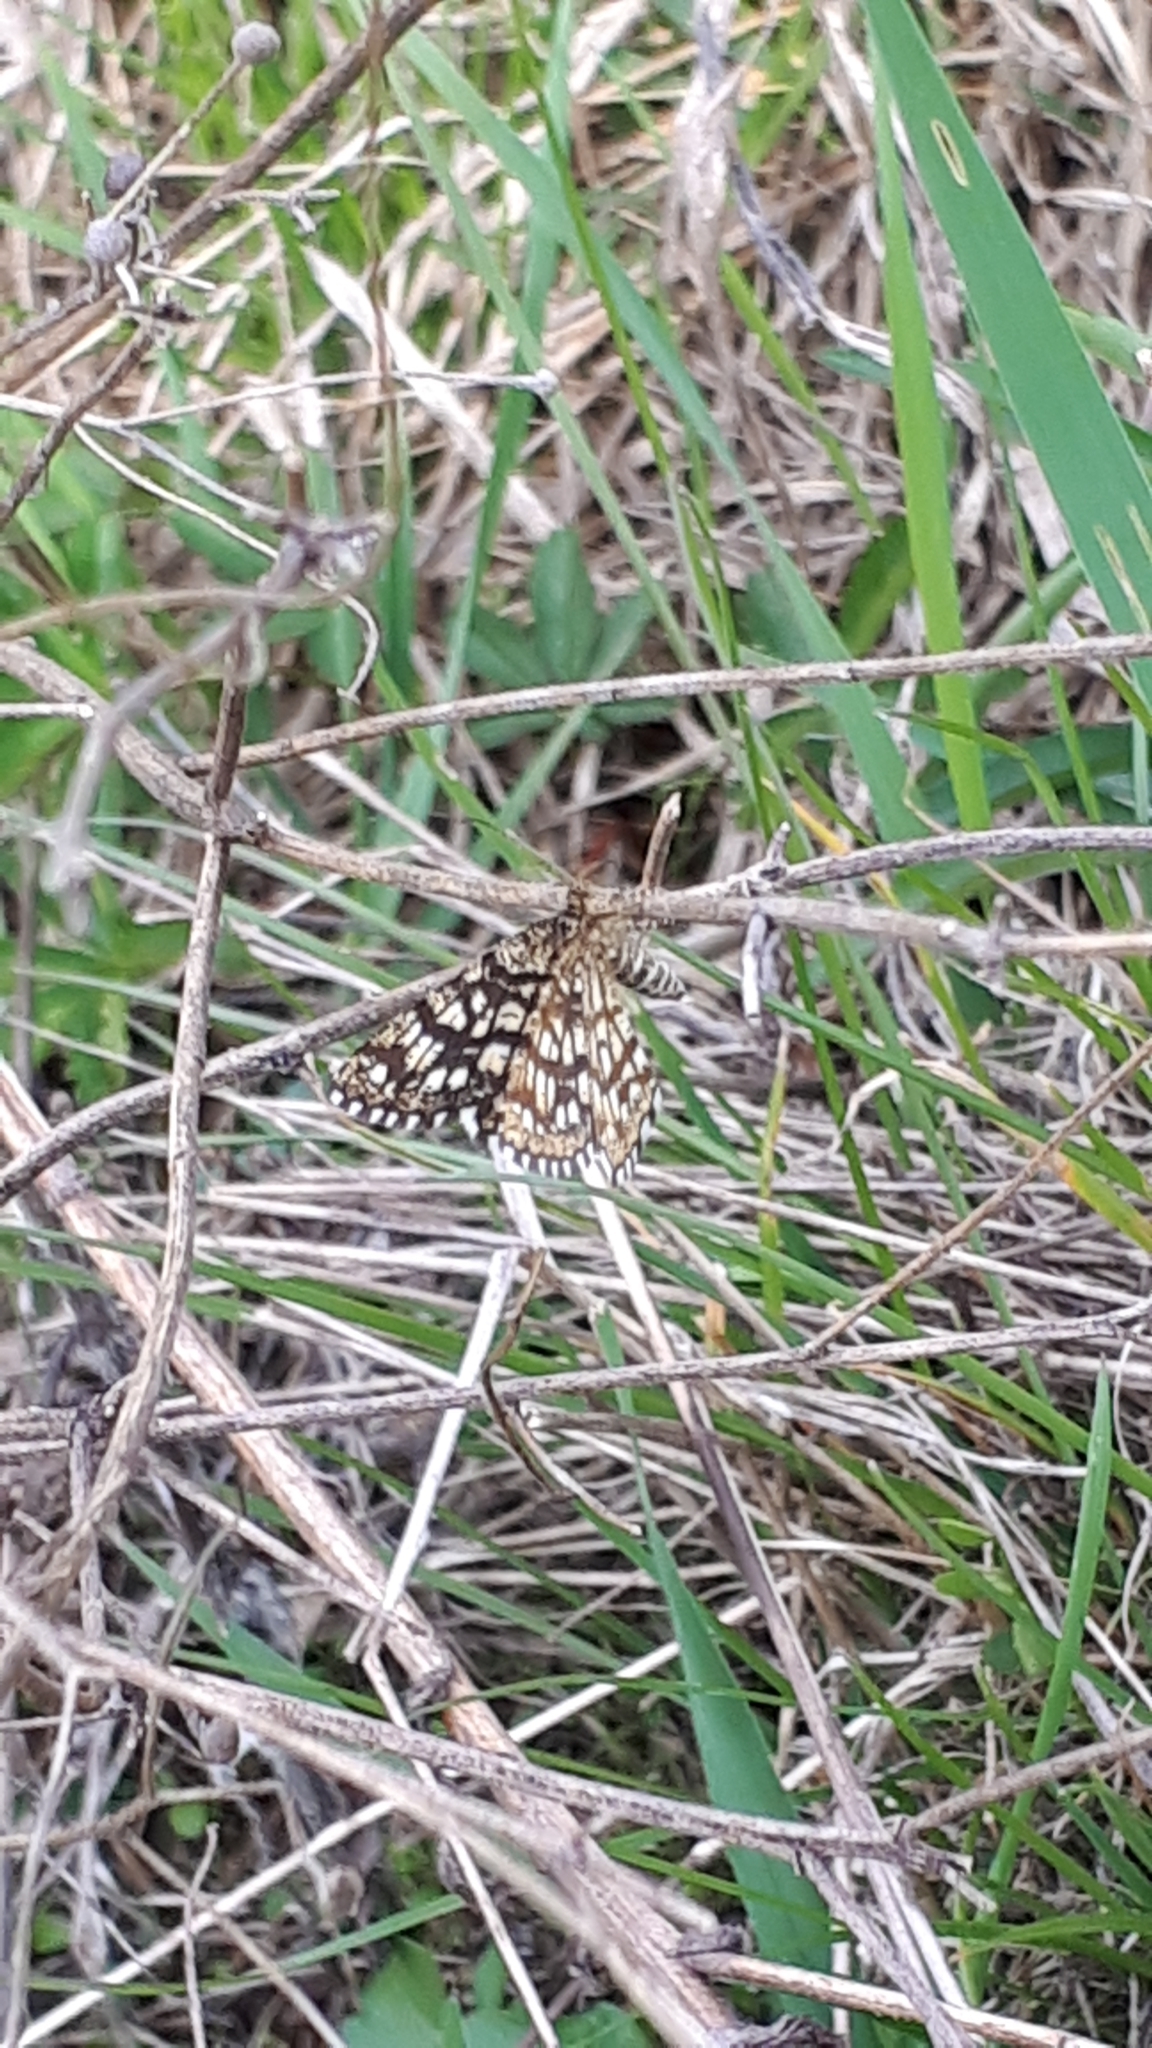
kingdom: Animalia
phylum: Arthropoda
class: Insecta
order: Lepidoptera
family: Geometridae
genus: Chiasmia
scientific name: Chiasmia clathrata
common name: Latticed heath
